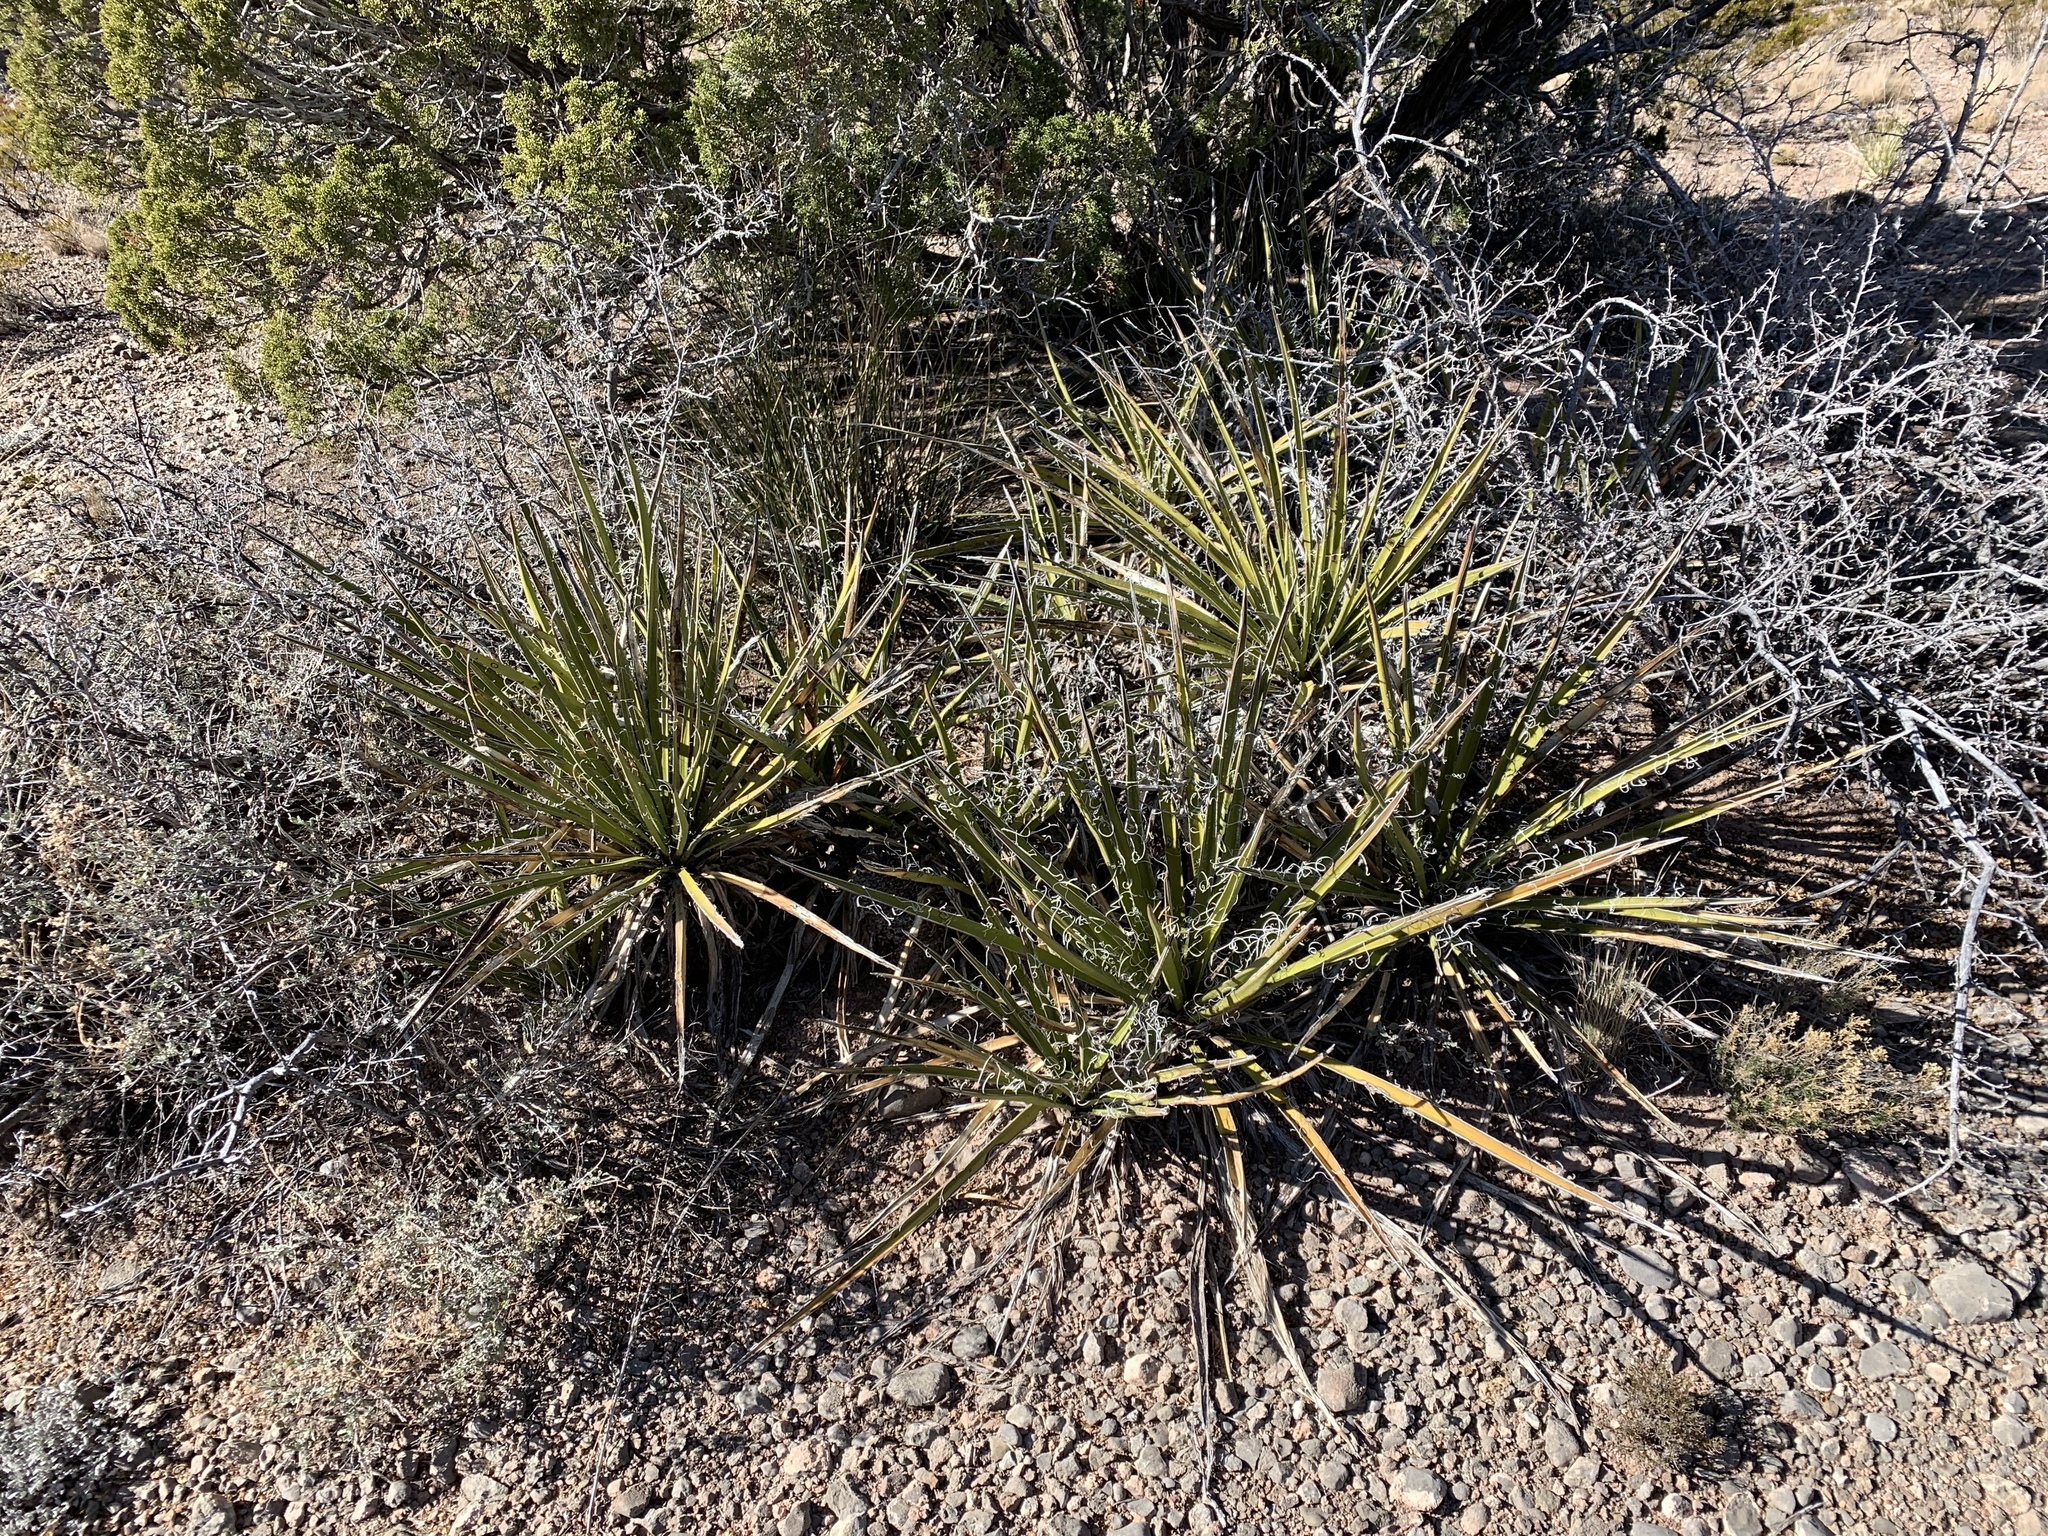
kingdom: Plantae
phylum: Tracheophyta
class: Liliopsida
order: Asparagales
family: Asparagaceae
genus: Yucca
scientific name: Yucca baccata
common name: Banana yucca
